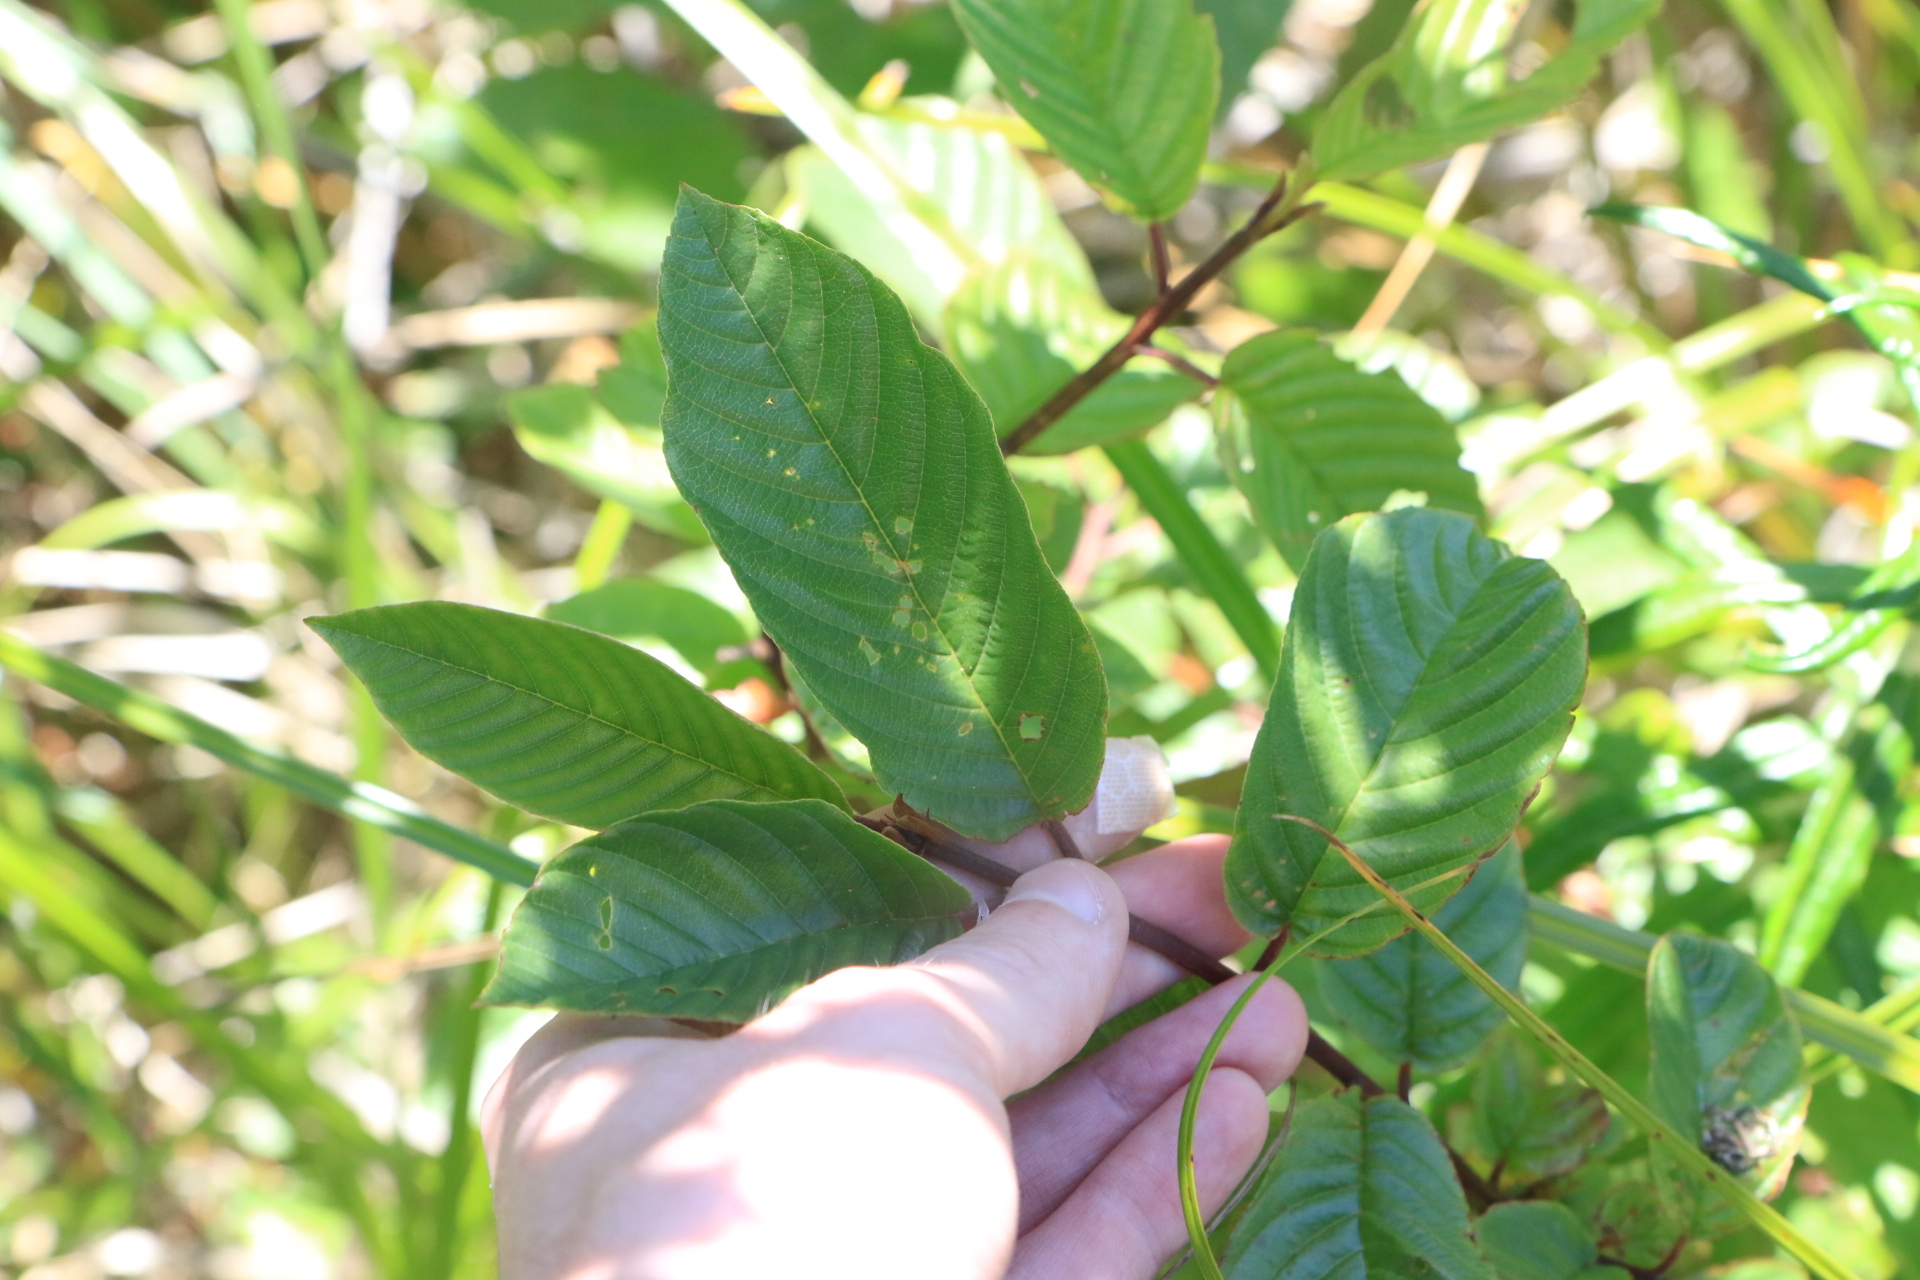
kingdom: Plantae
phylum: Tracheophyta
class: Magnoliopsida
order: Rosales
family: Rhamnaceae
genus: Frangula
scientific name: Frangula purshiana
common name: Cascara buckthorn
